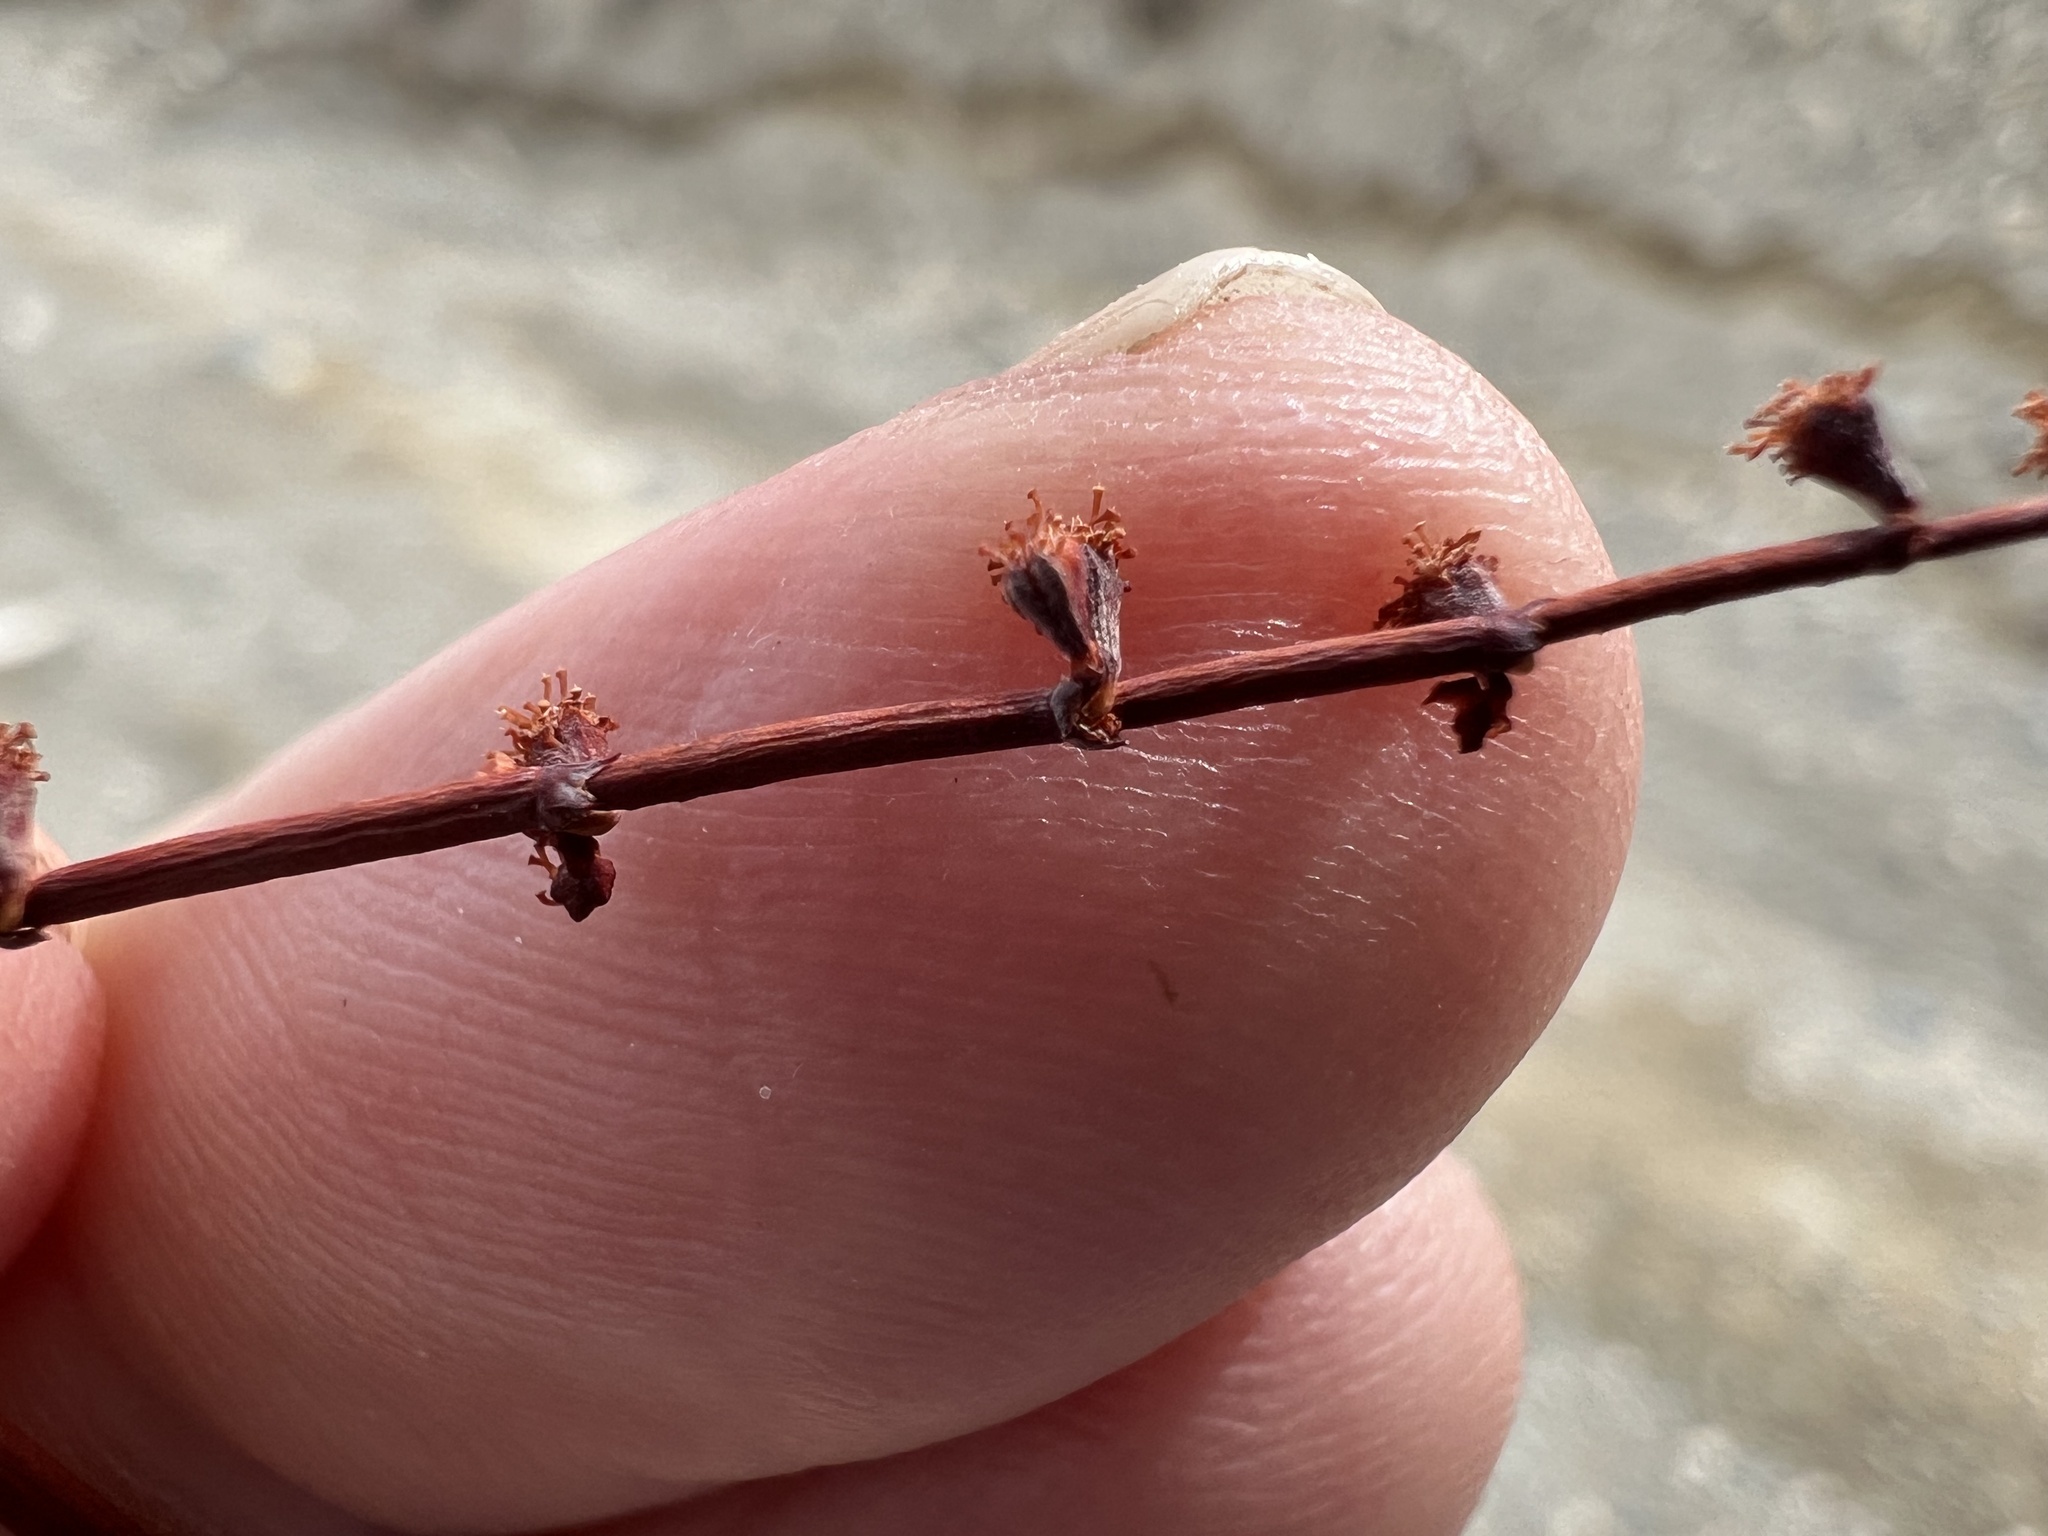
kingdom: Plantae
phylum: Tracheophyta
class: Magnoliopsida
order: Caryophyllales
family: Polygonaceae
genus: Eriogonum
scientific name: Eriogonum deflexum
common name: Skeleton-weed
